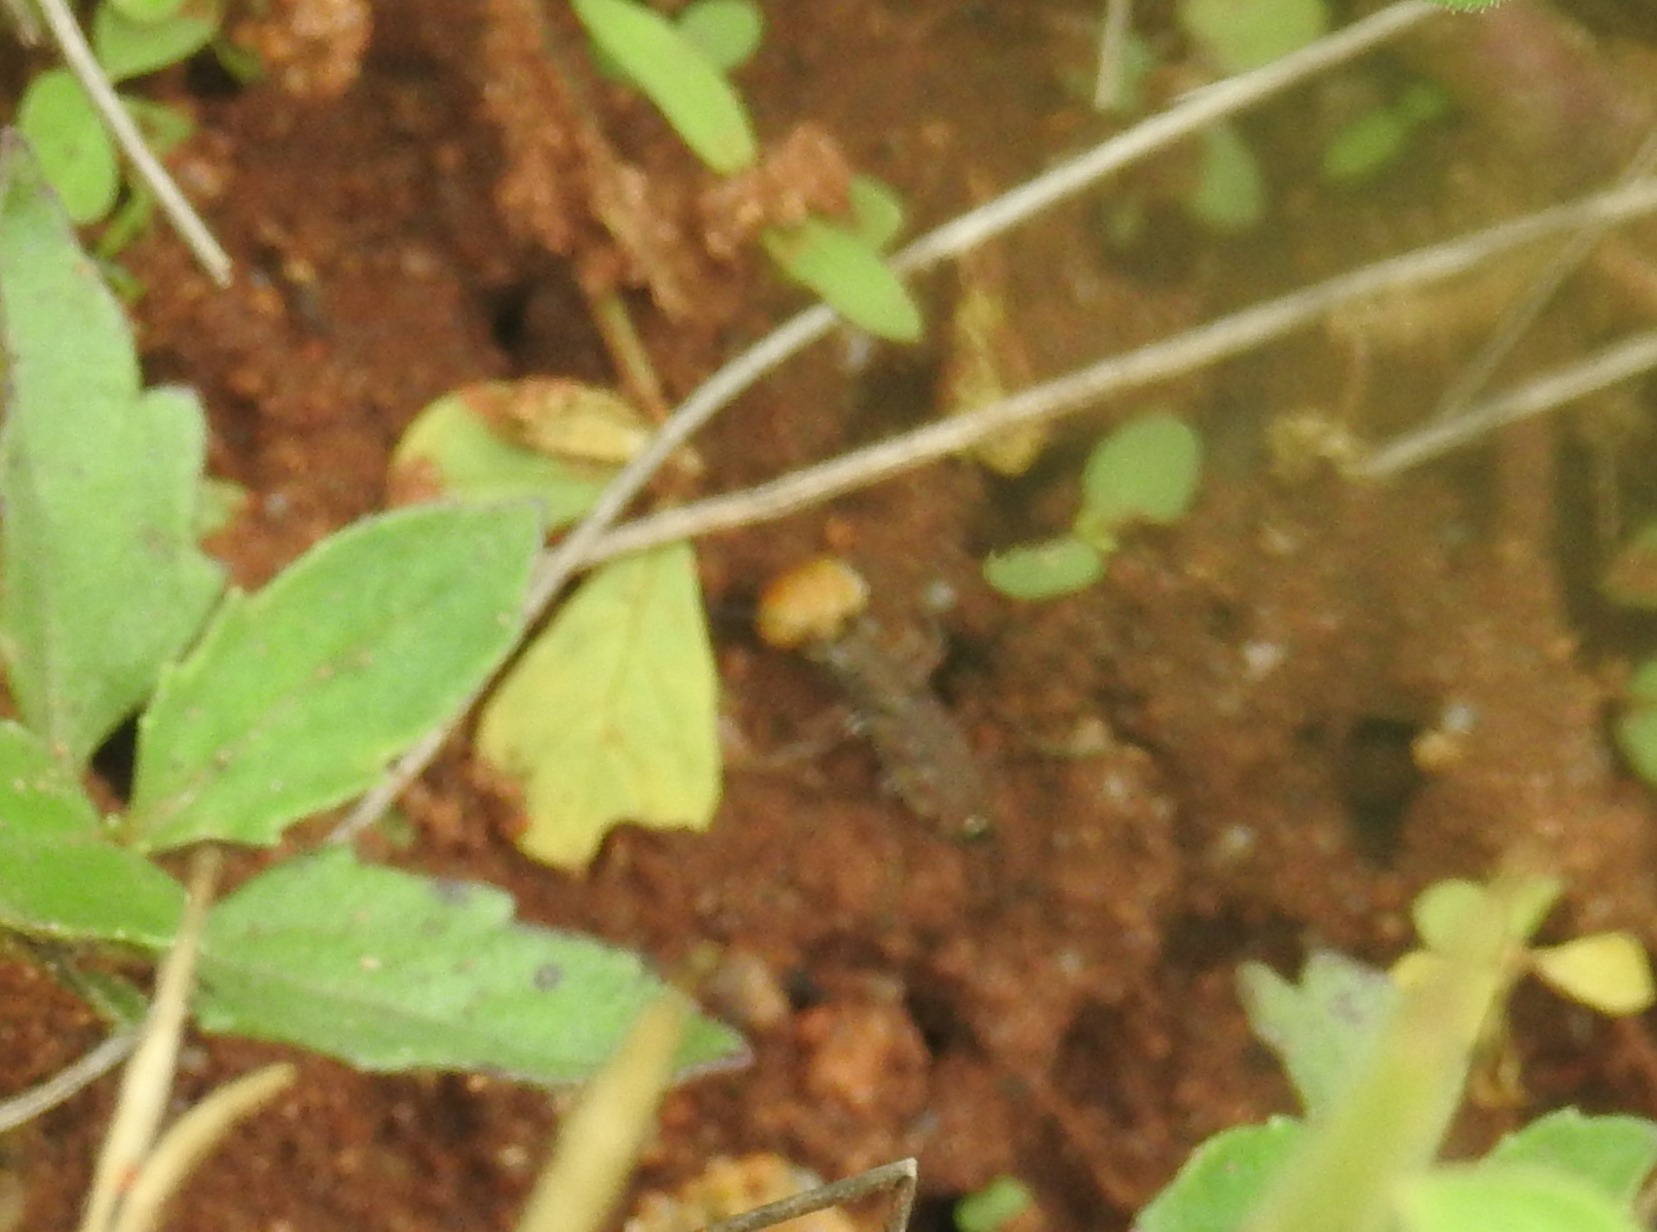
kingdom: Animalia
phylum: Arthropoda
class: Insecta
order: Coleoptera
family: Carabidae
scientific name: Carabidae
